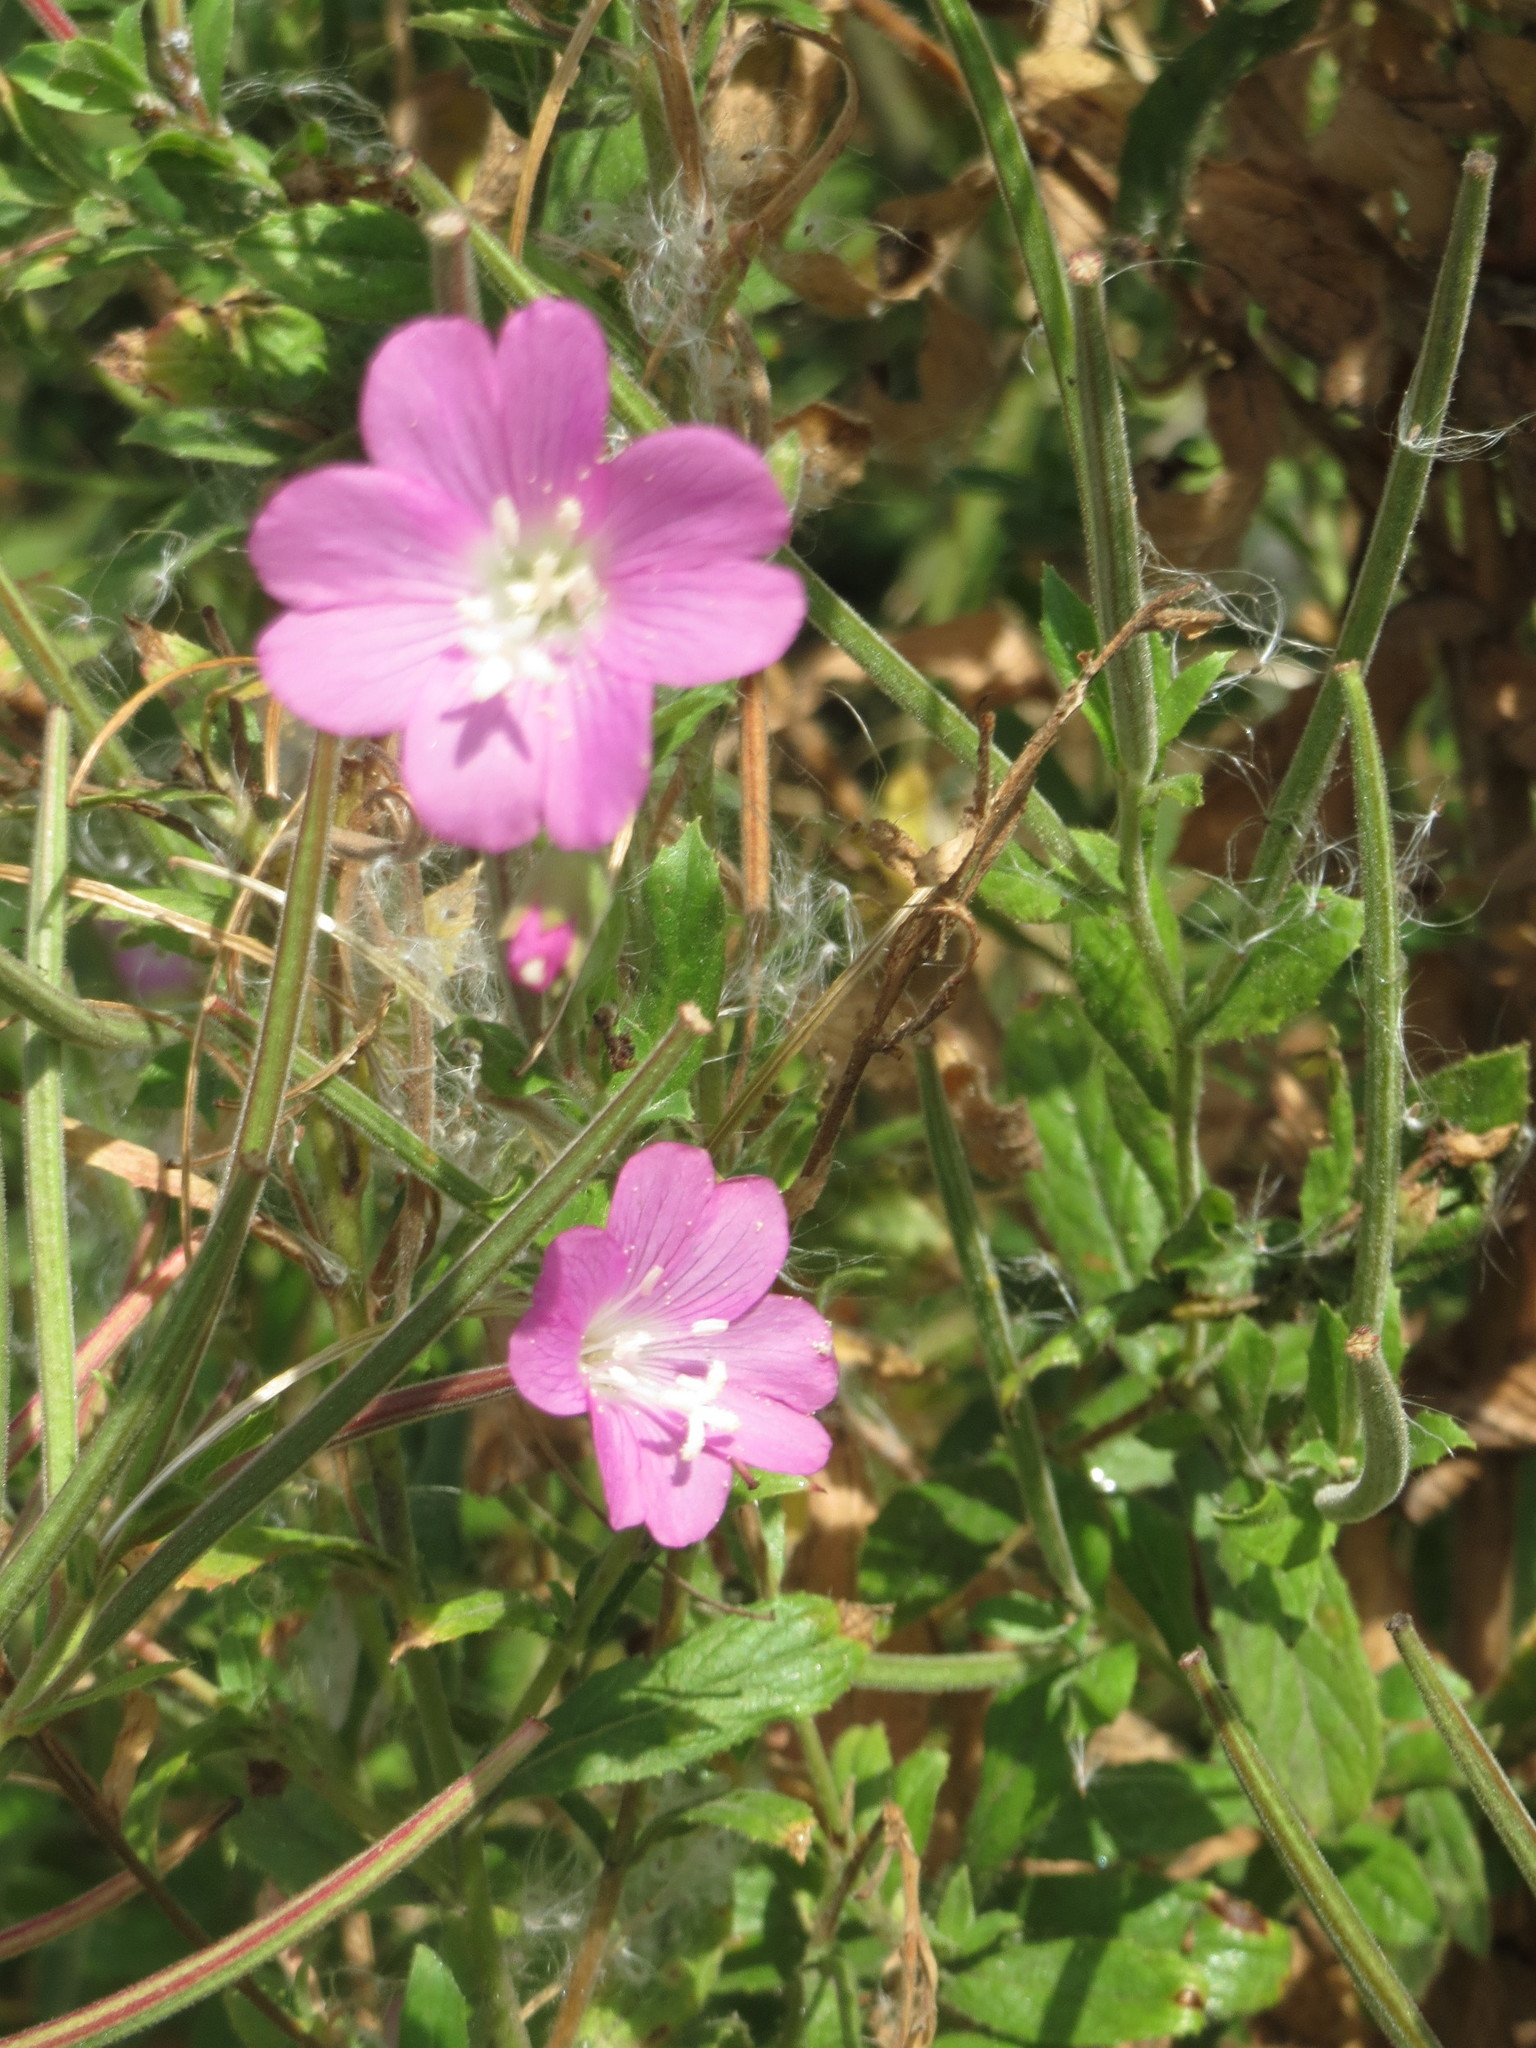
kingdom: Plantae
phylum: Tracheophyta
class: Magnoliopsida
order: Myrtales
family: Onagraceae
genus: Epilobium
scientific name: Epilobium hirsutum
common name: Great willowherb
